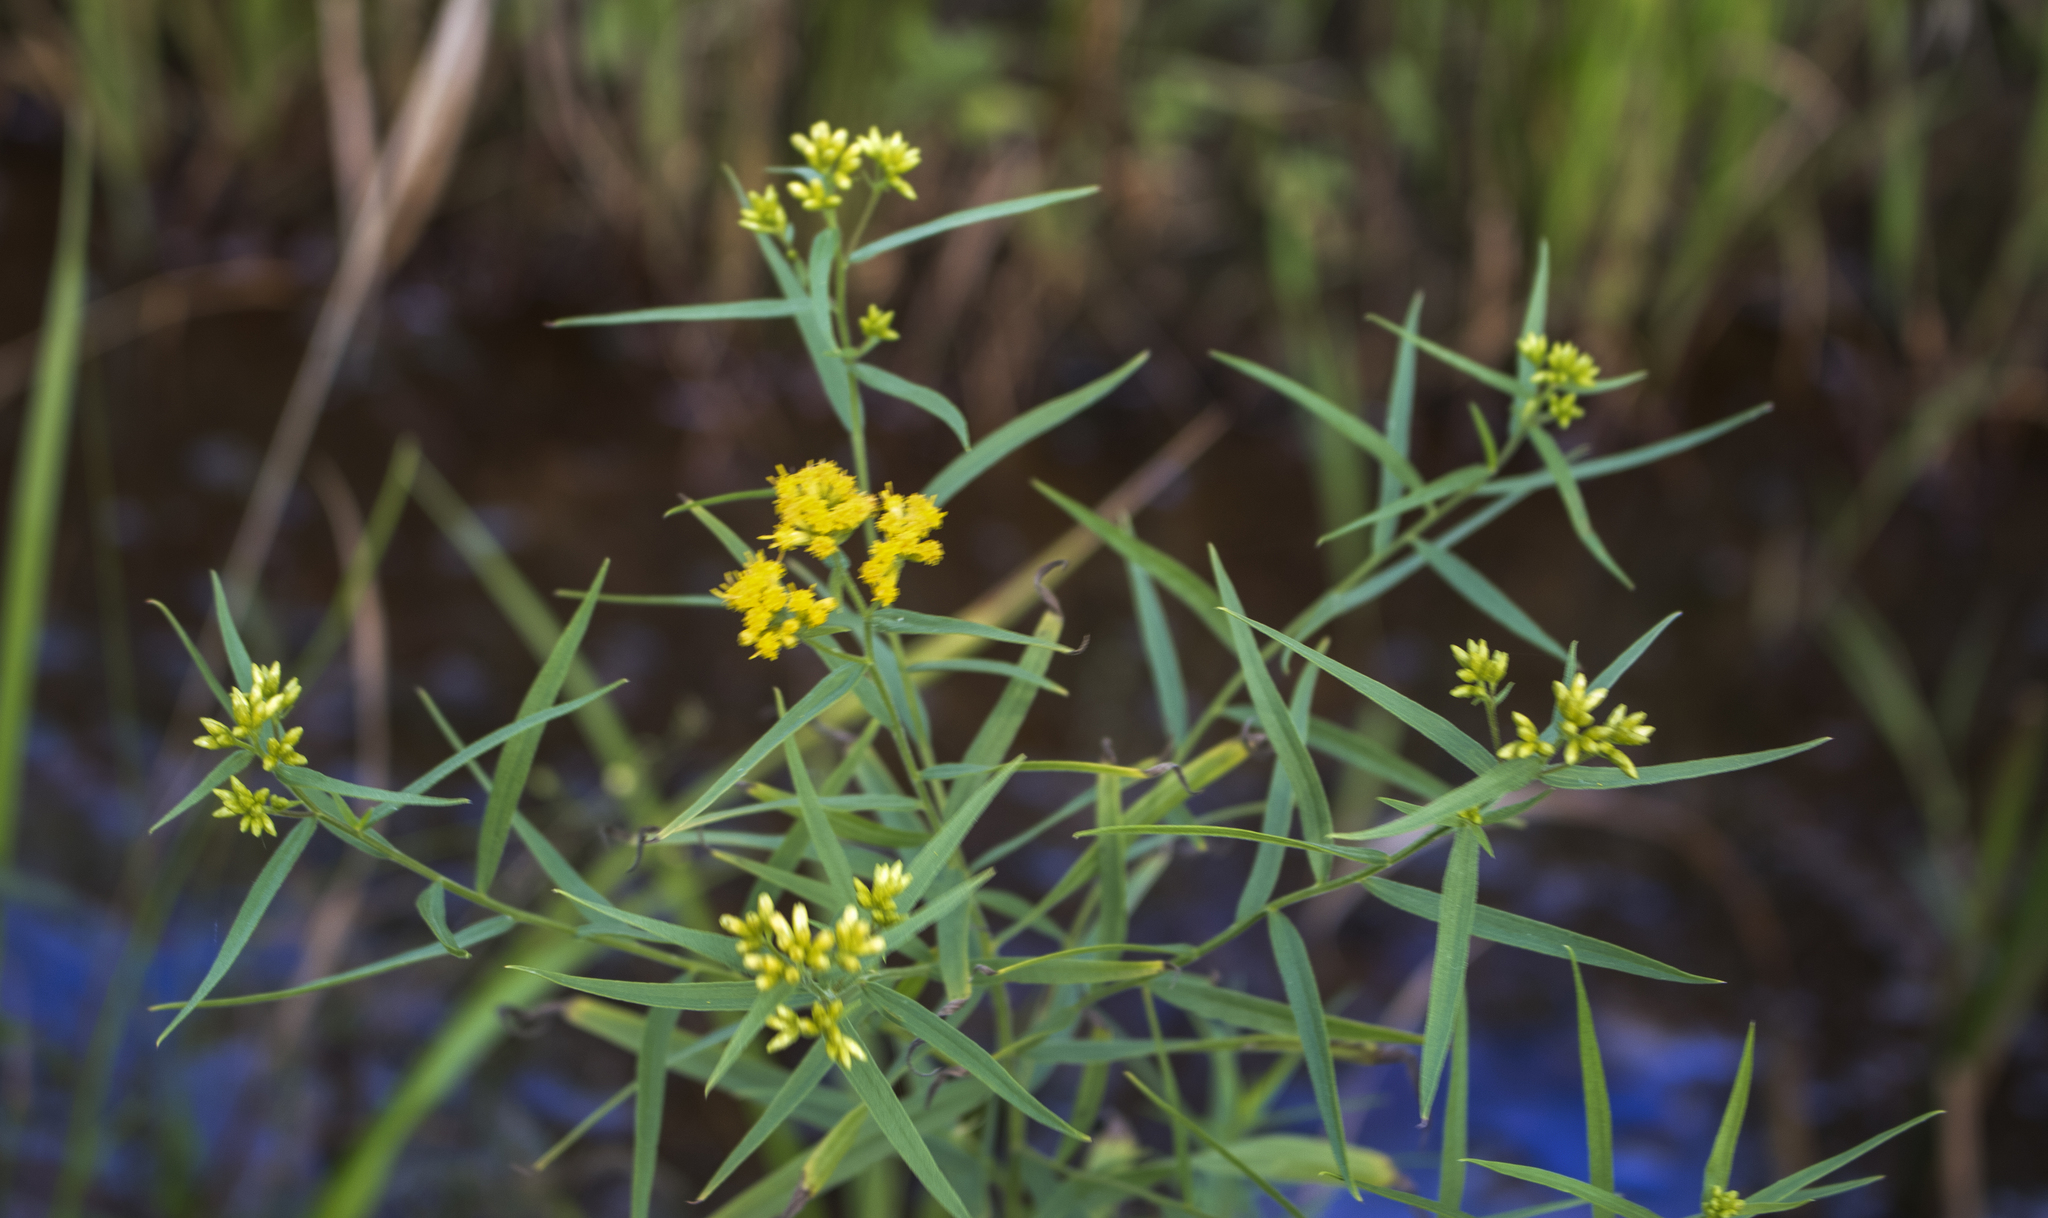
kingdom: Plantae
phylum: Tracheophyta
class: Magnoliopsida
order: Asterales
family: Asteraceae
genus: Euthamia
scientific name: Euthamia graminifolia
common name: Common goldentop
